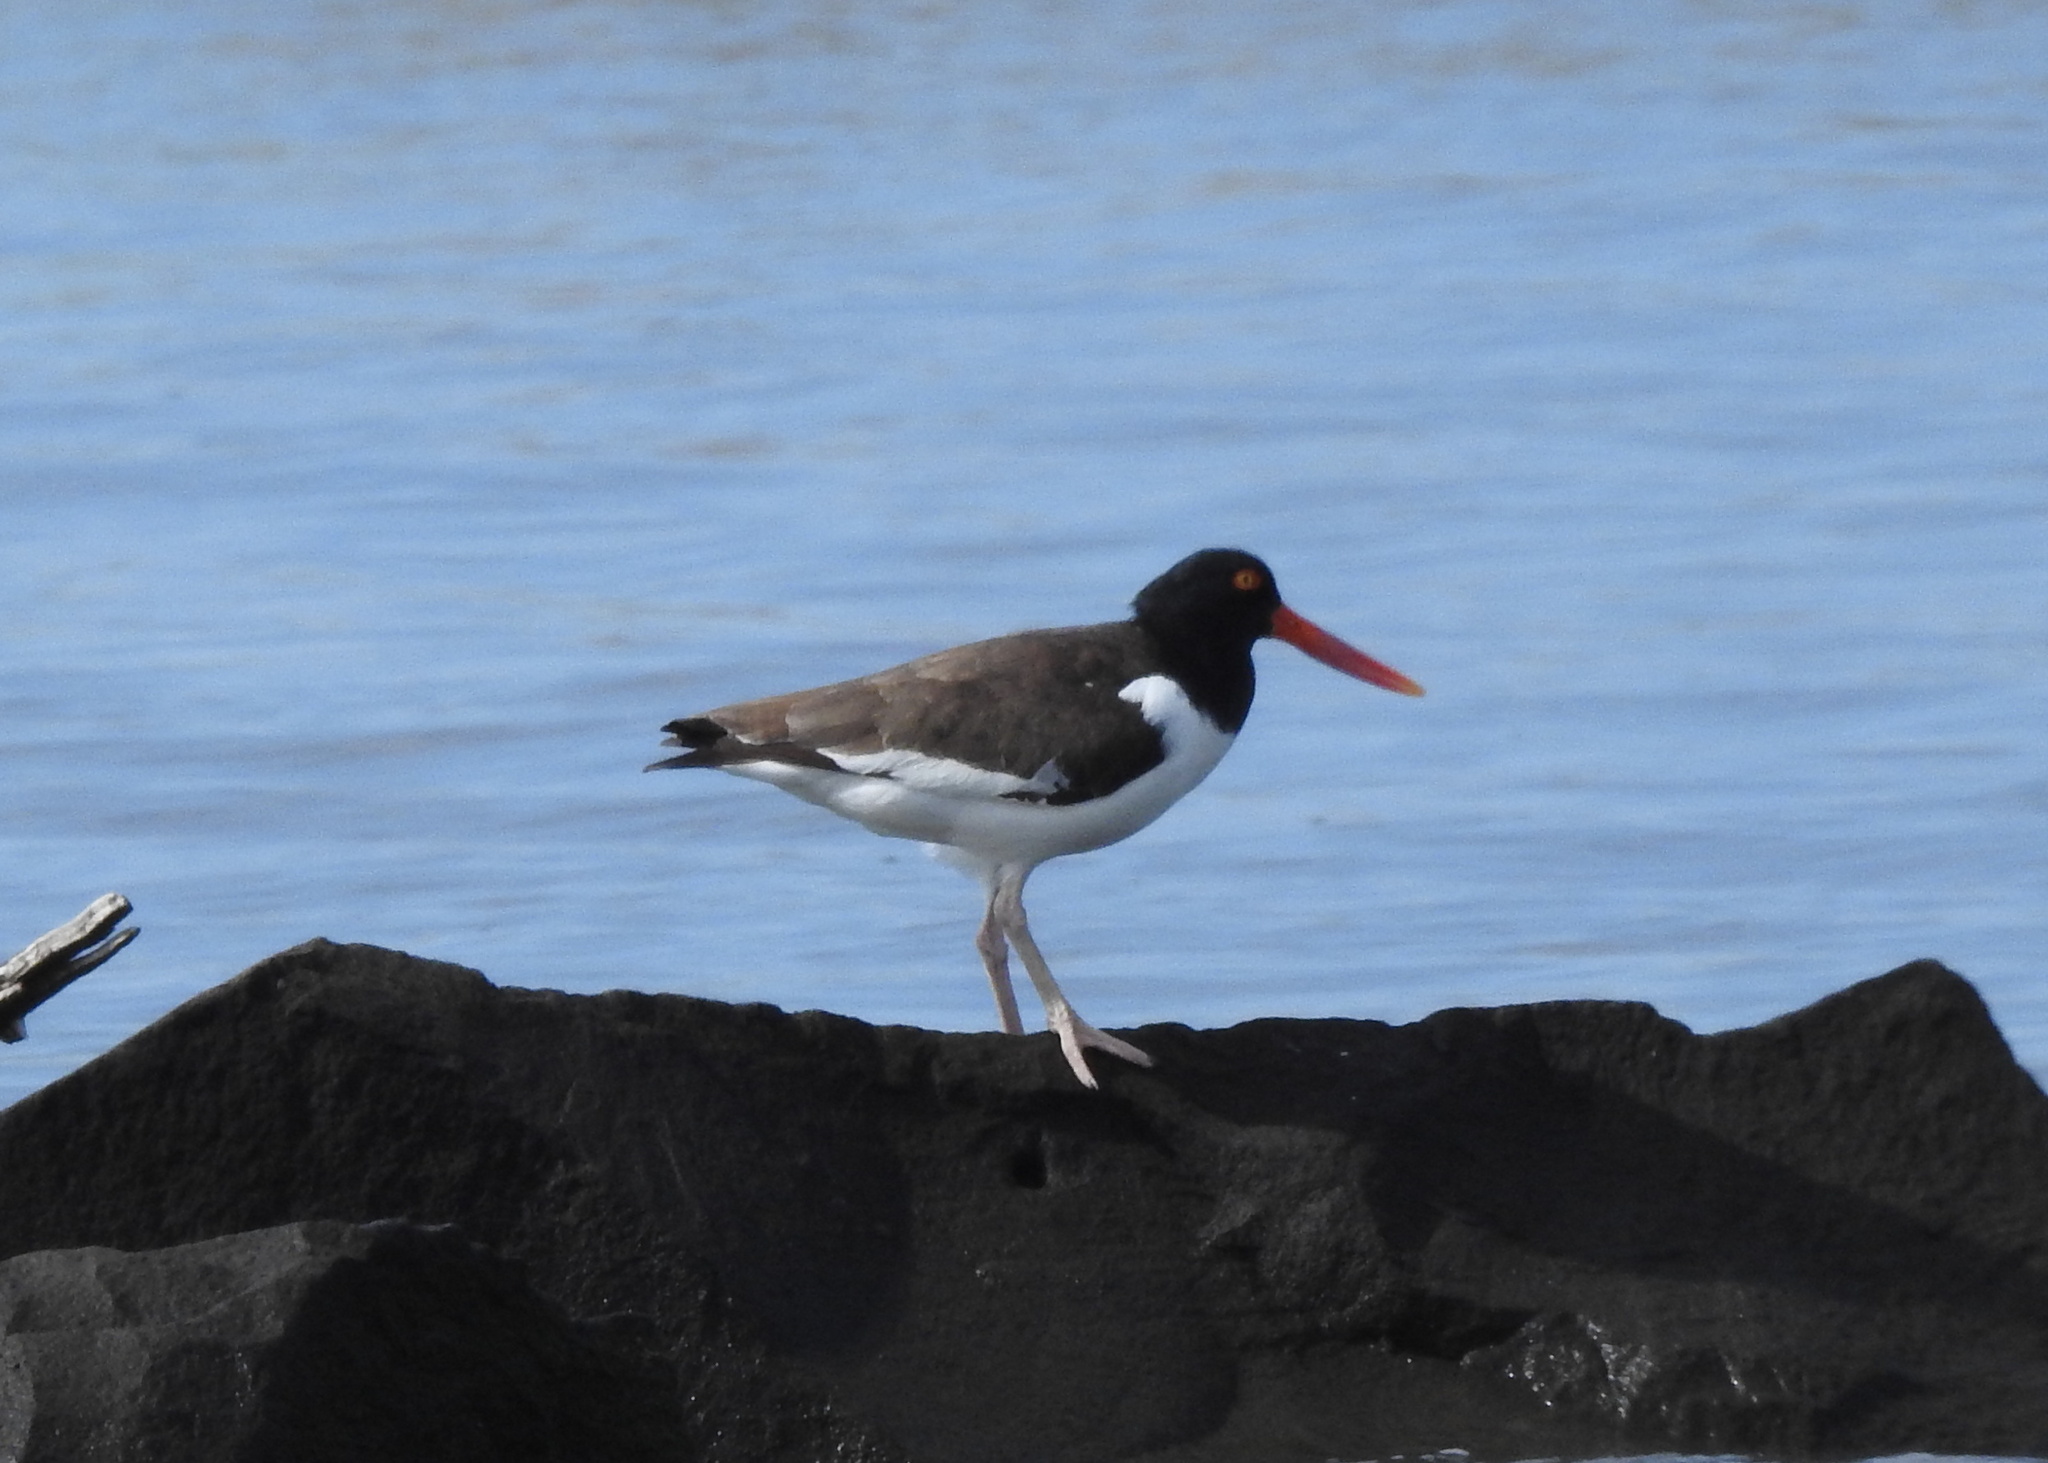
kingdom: Animalia
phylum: Chordata
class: Aves
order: Charadriiformes
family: Haematopodidae
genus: Haematopus
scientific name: Haematopus palliatus
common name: American oystercatcher
